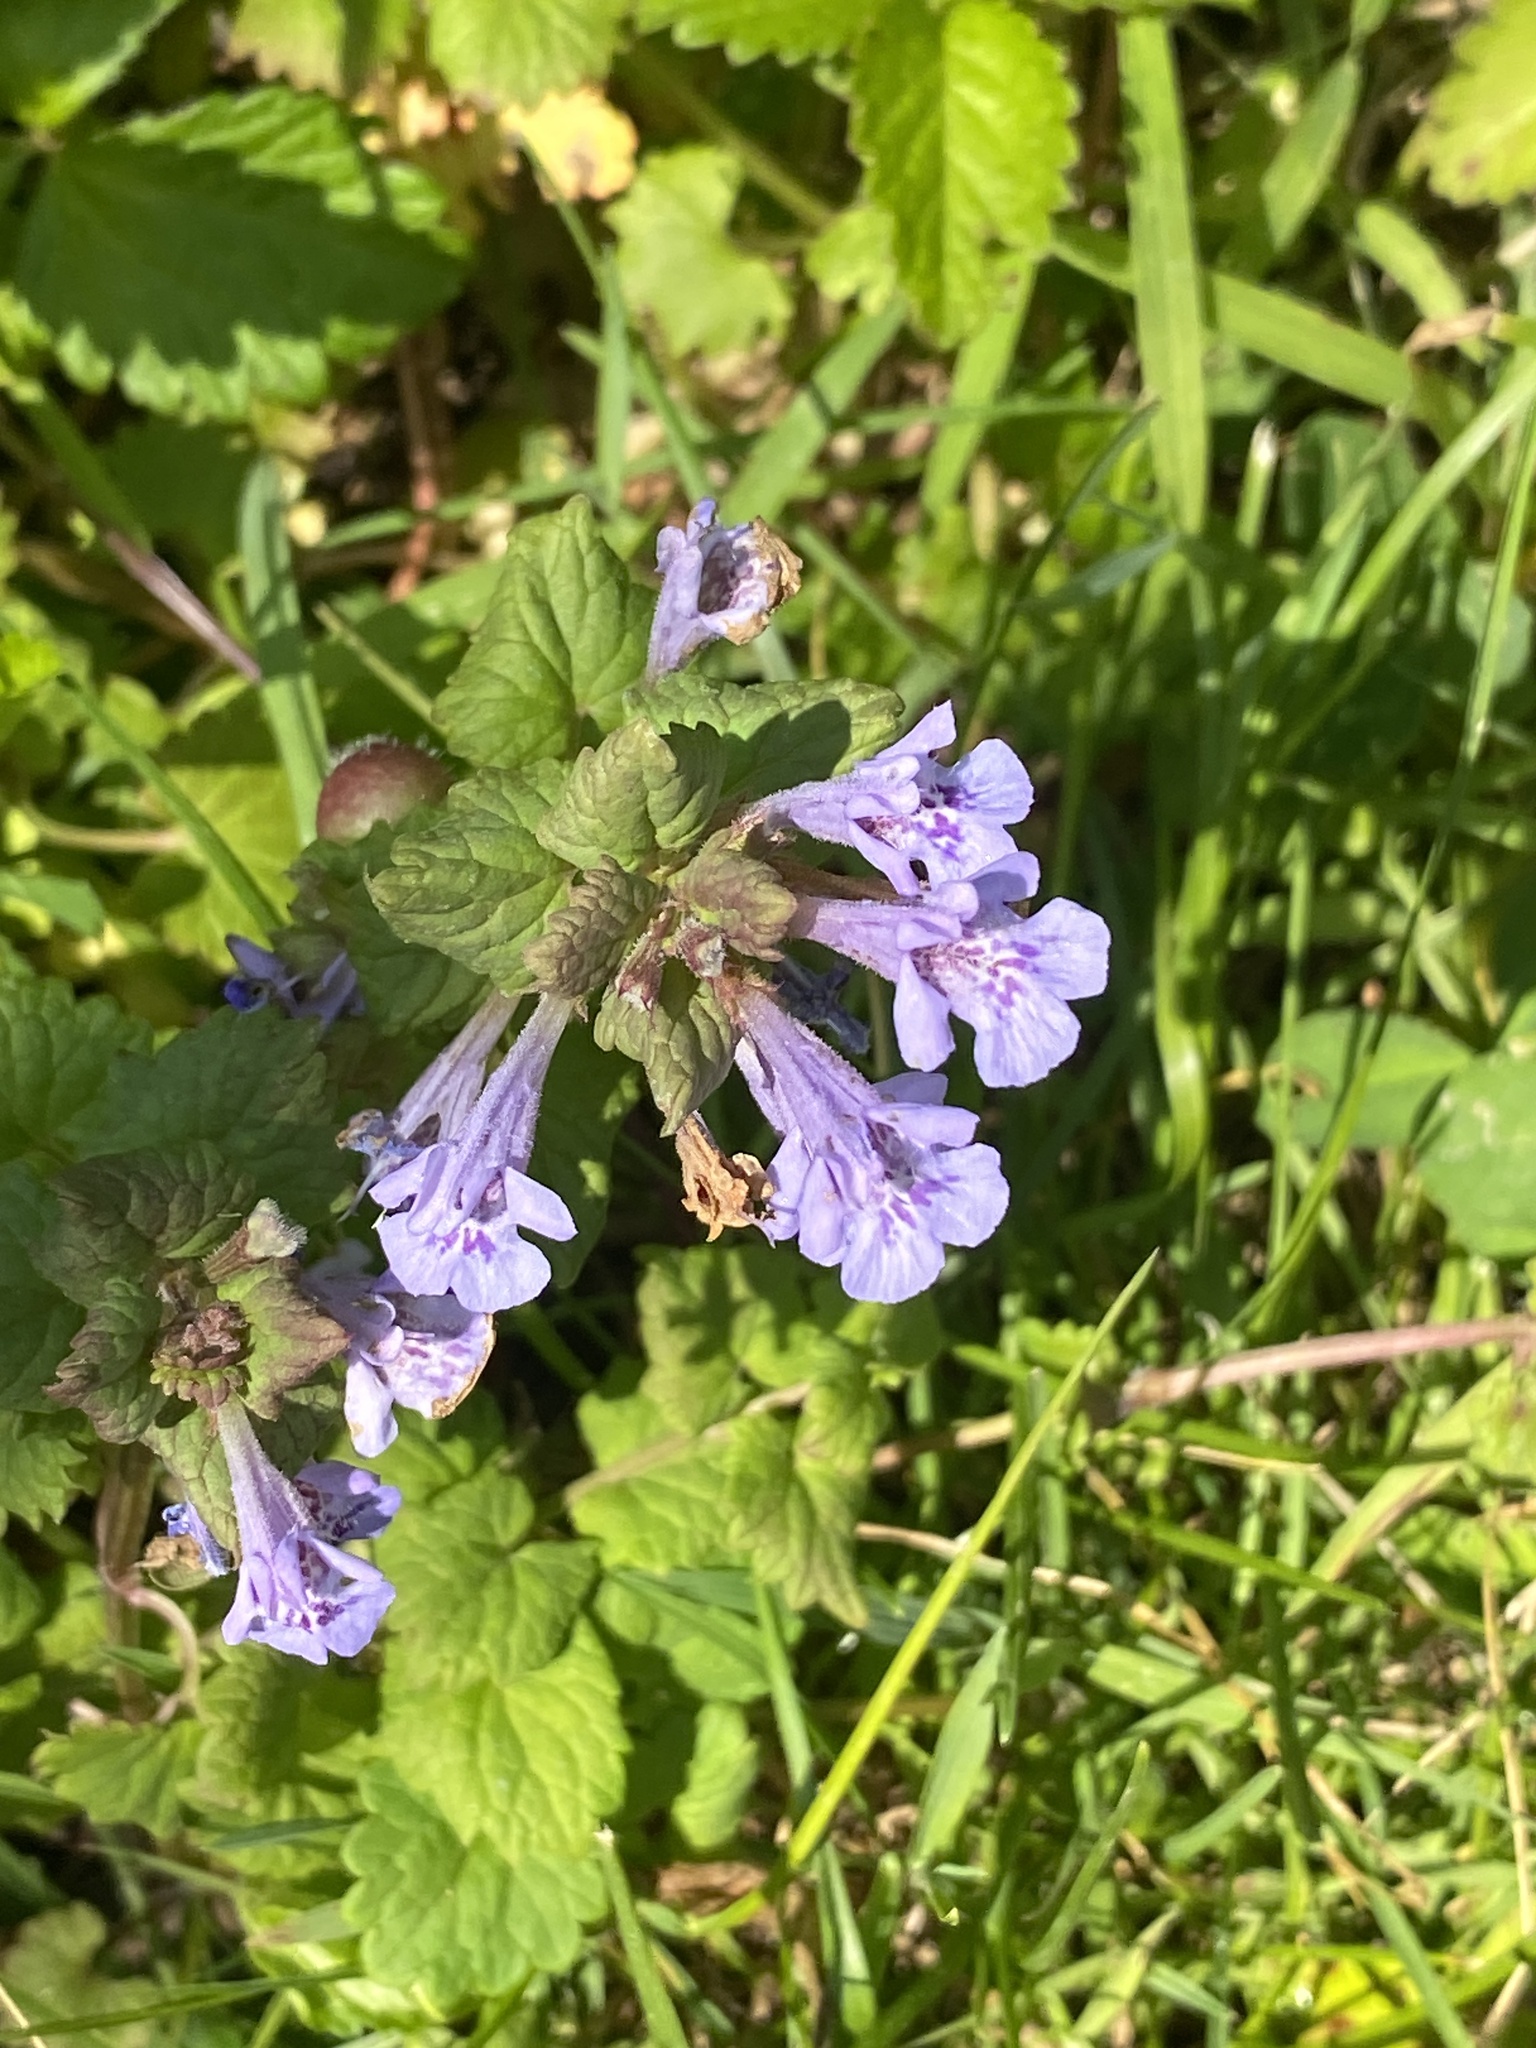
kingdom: Plantae
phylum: Tracheophyta
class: Magnoliopsida
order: Lamiales
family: Lamiaceae
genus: Glechoma
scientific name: Glechoma hederacea
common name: Ground ivy
